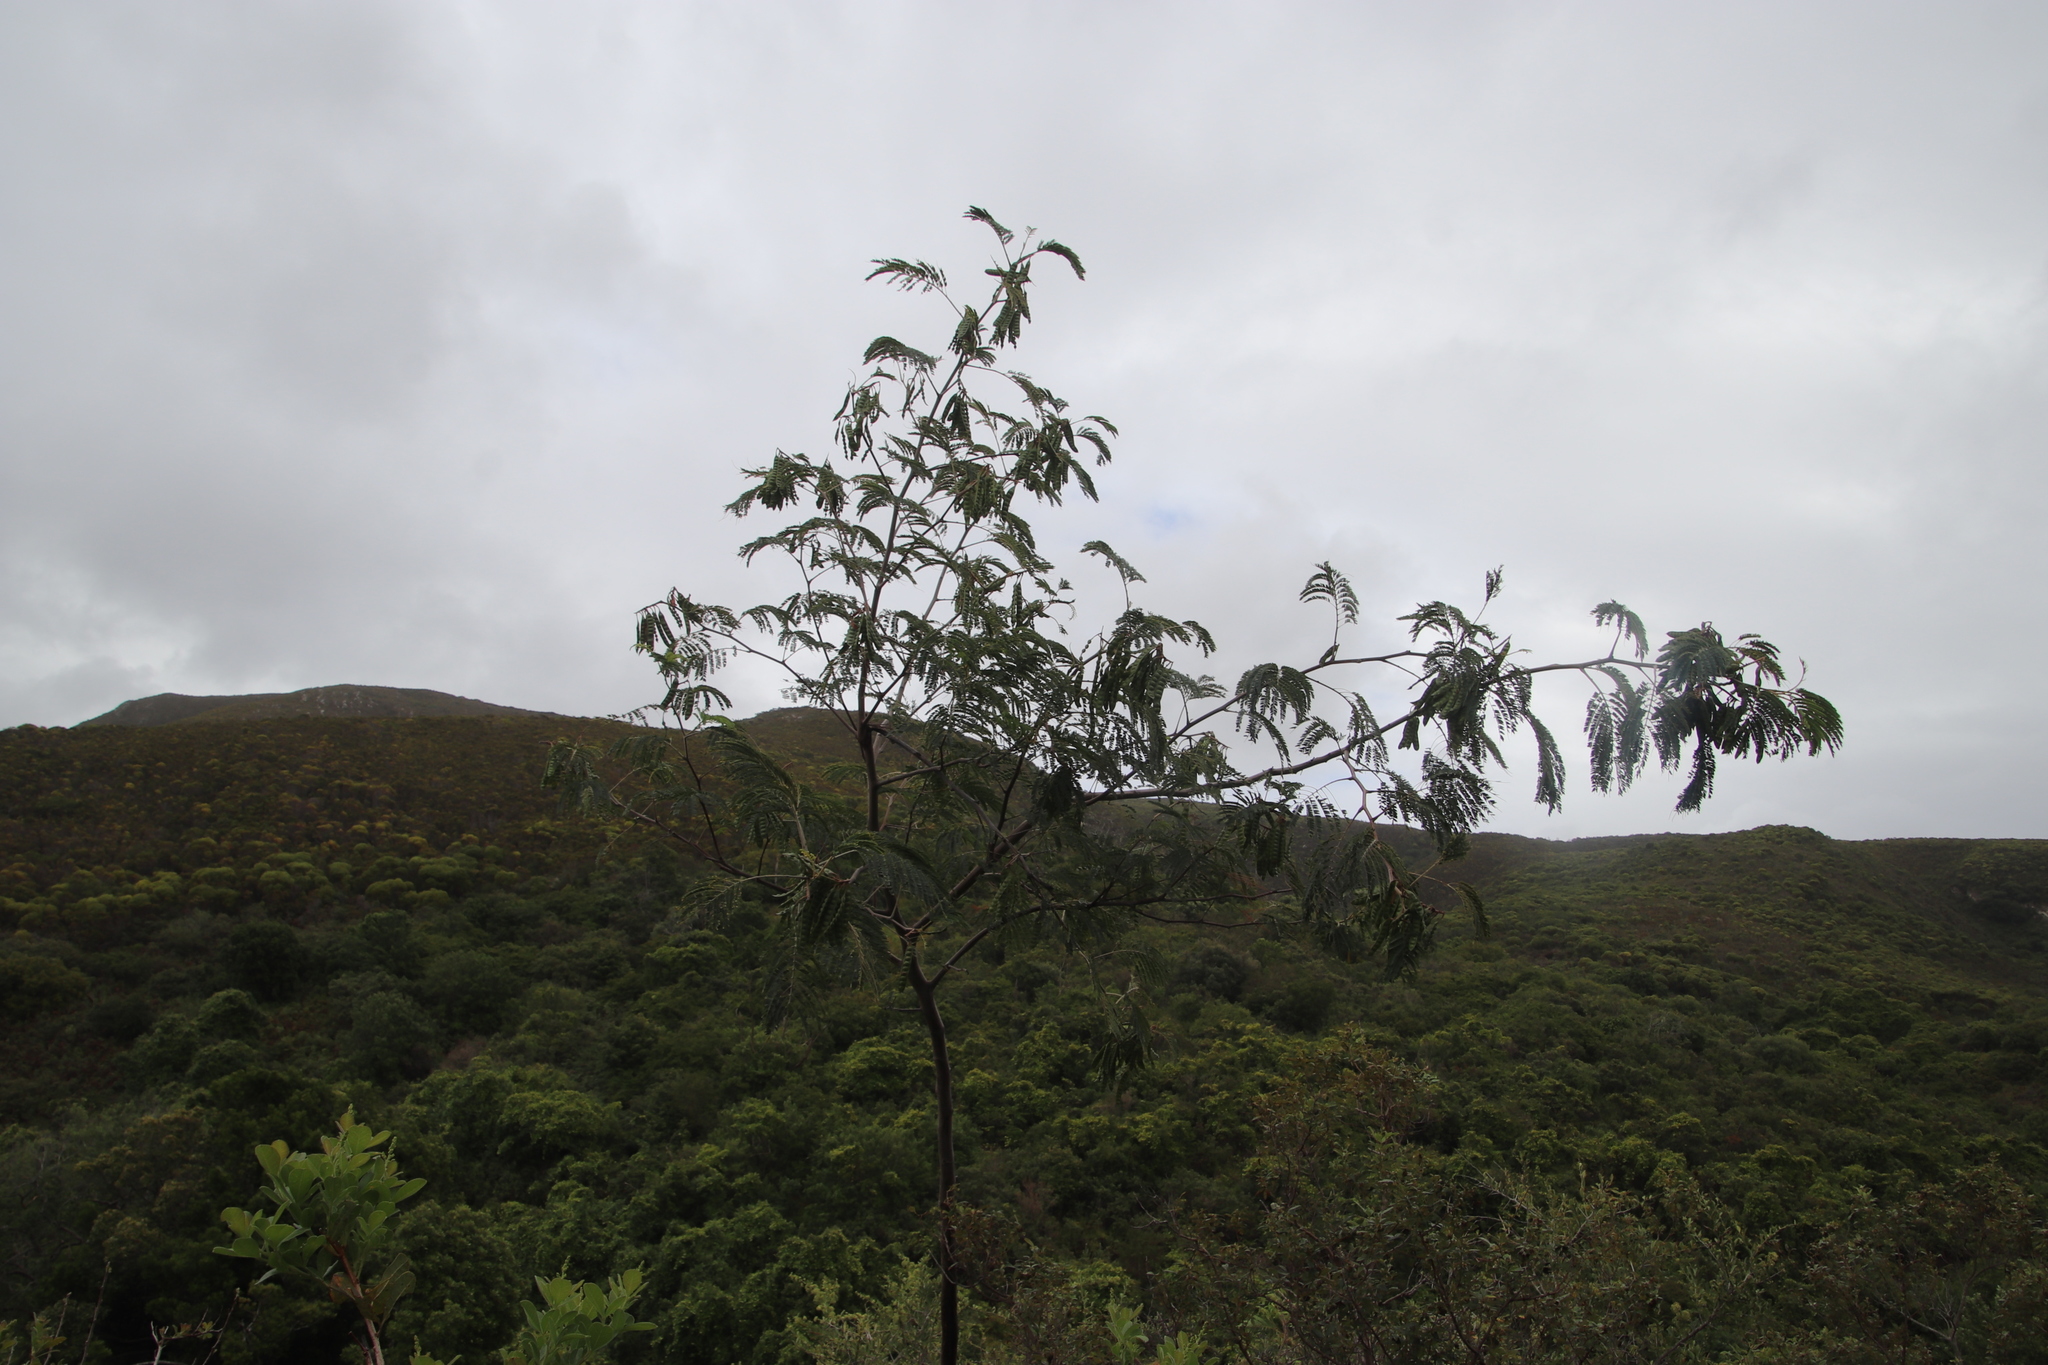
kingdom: Plantae
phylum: Tracheophyta
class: Magnoliopsida
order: Fabales
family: Fabaceae
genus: Paraserianthes
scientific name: Paraserianthes lophantha
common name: Plume albizia
